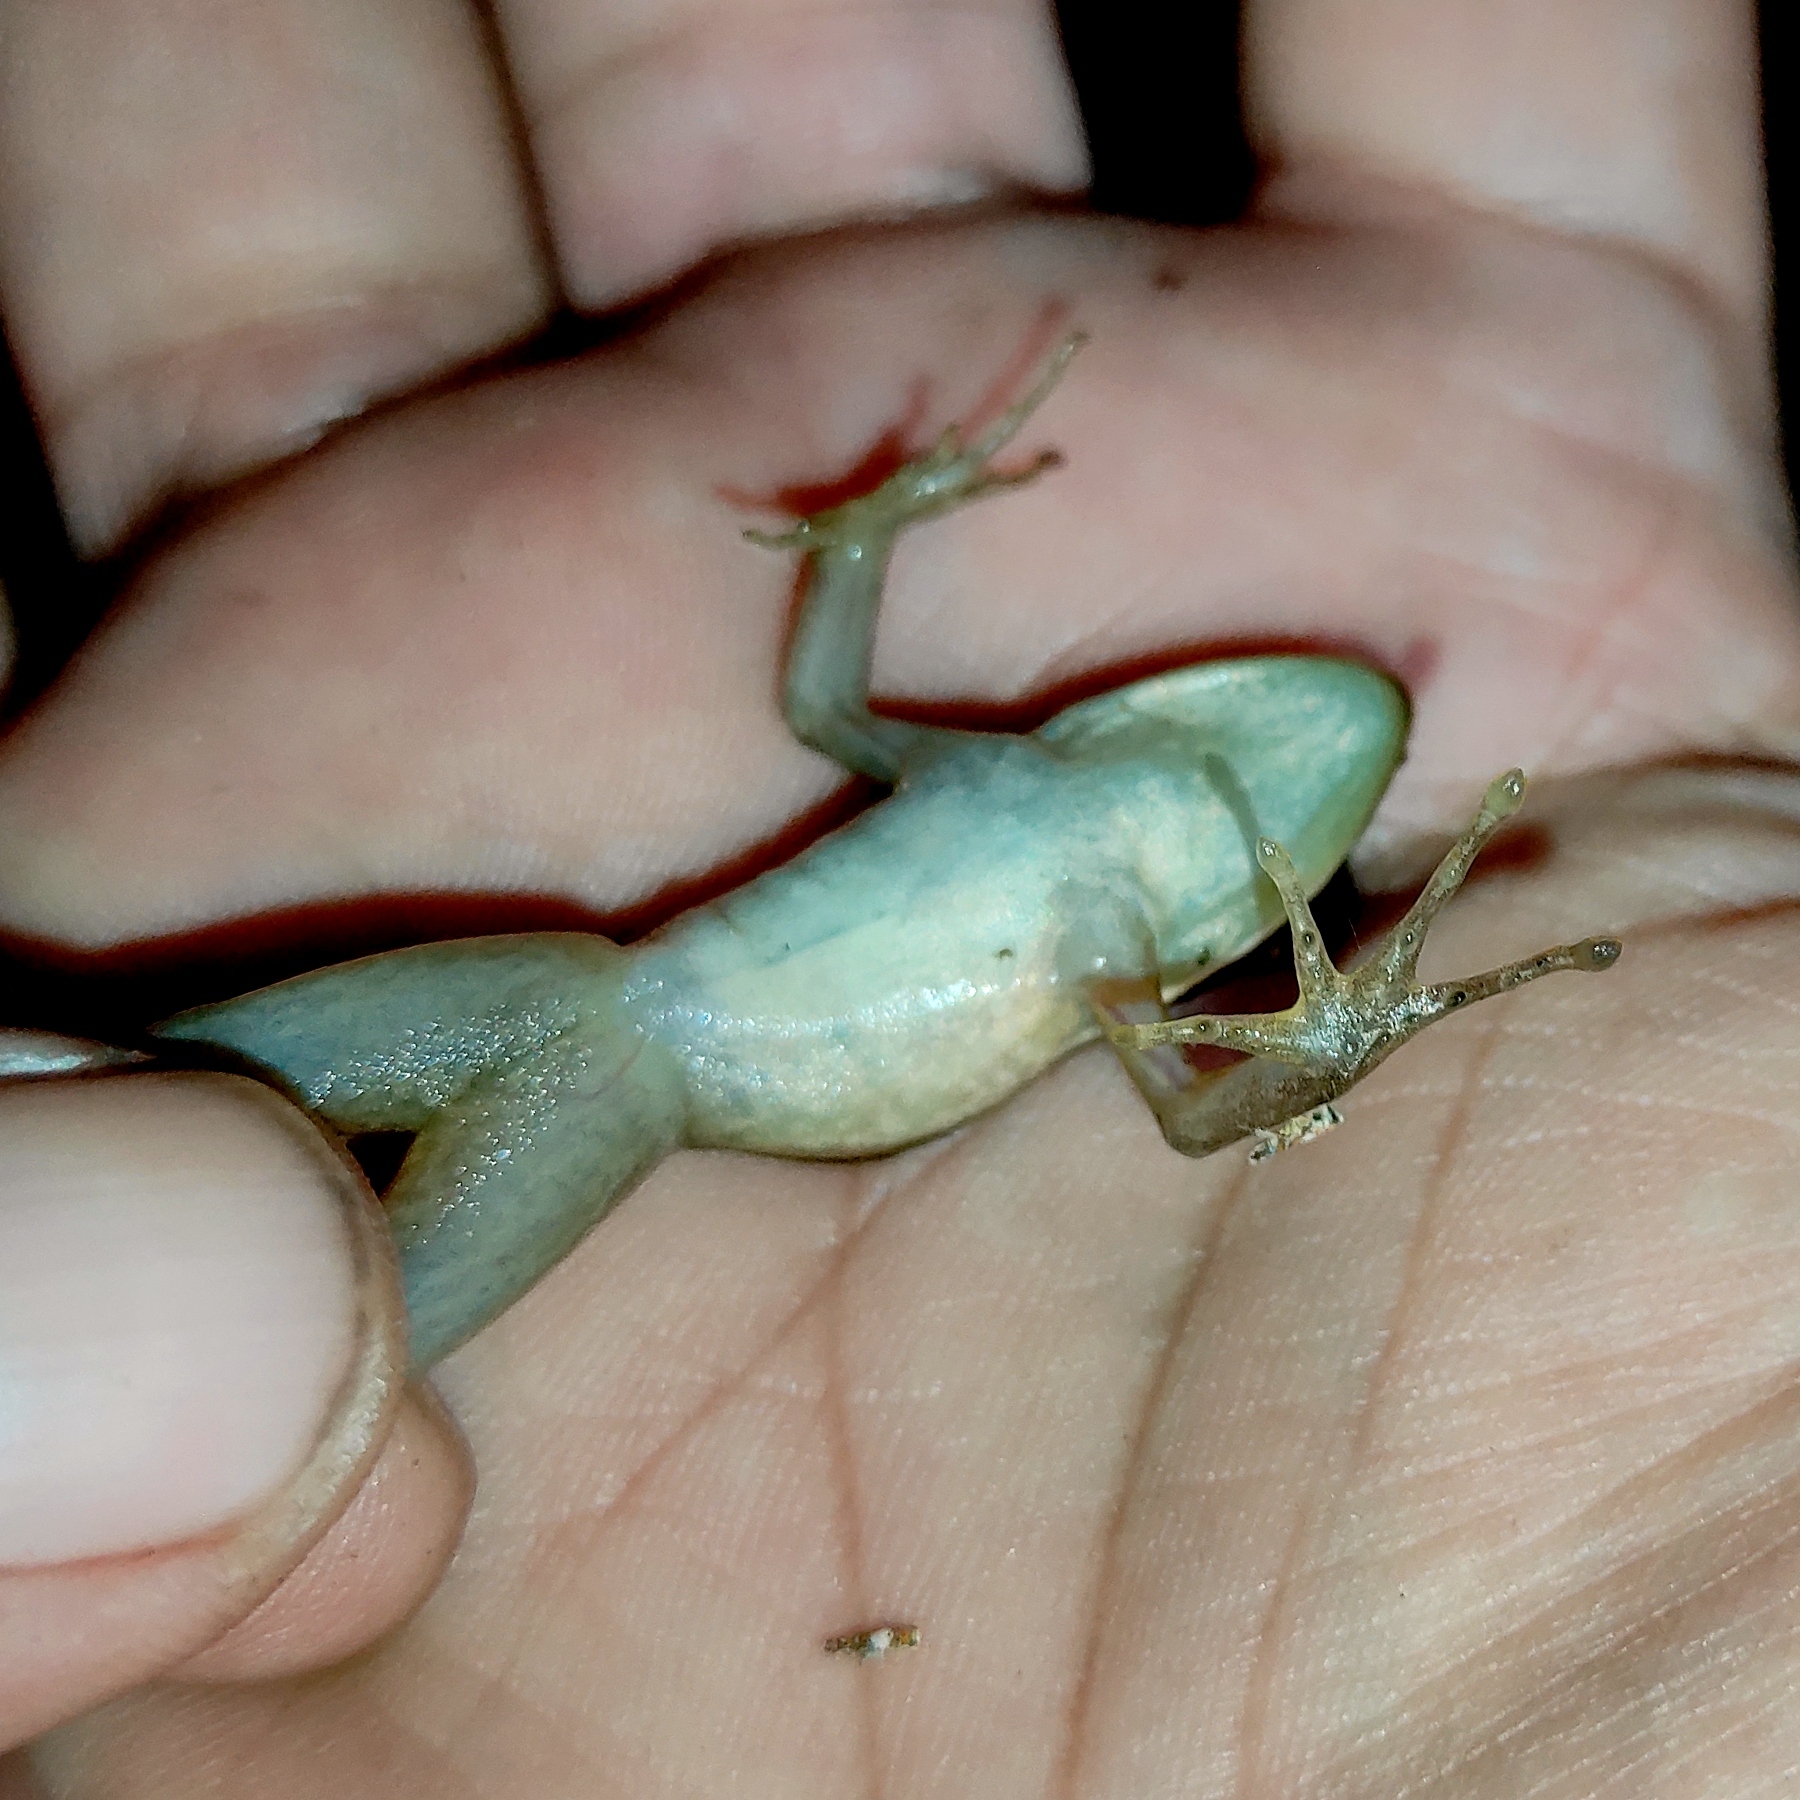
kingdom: Animalia
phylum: Chordata
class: Amphibia
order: Anura
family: Ranidae
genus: Hylarana
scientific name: Hylarana erythraea
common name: Common green frog/green paddy frog/leaf frog
